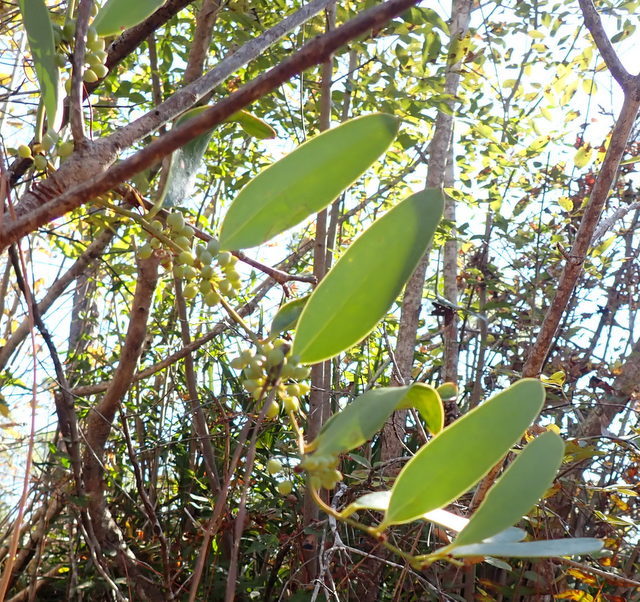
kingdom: Plantae
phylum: Tracheophyta
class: Liliopsida
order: Liliales
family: Smilacaceae
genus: Smilax
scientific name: Smilax laurifolia
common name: Bamboovine
